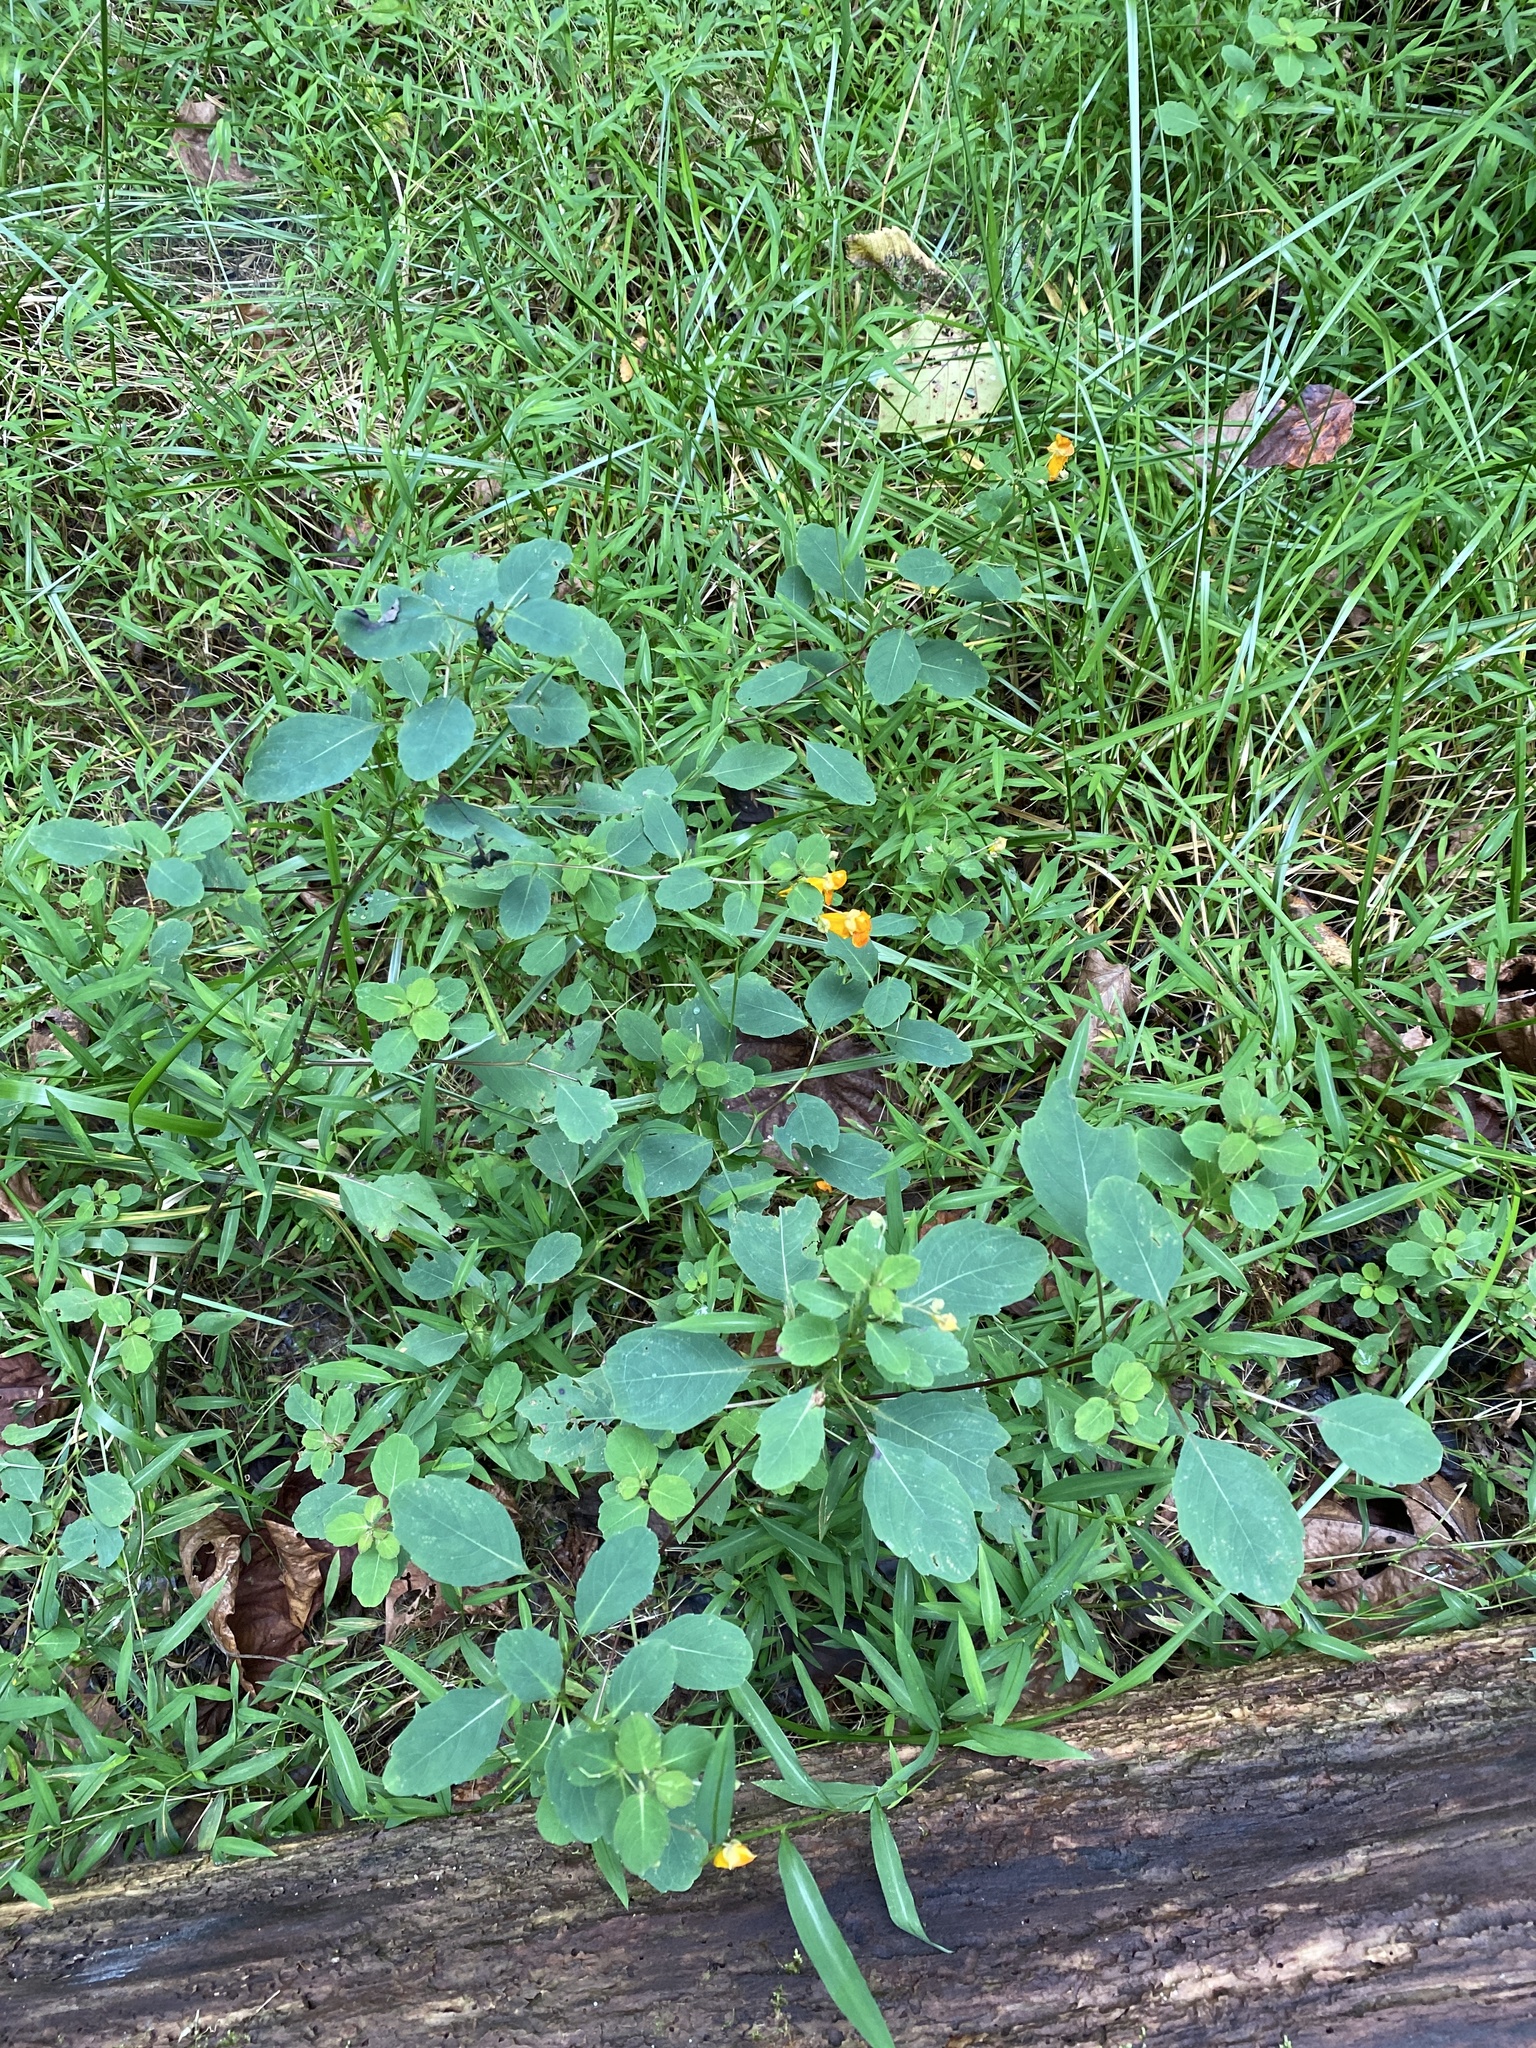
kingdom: Plantae
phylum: Tracheophyta
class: Magnoliopsida
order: Ericales
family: Balsaminaceae
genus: Impatiens
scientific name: Impatiens capensis
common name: Orange balsam
